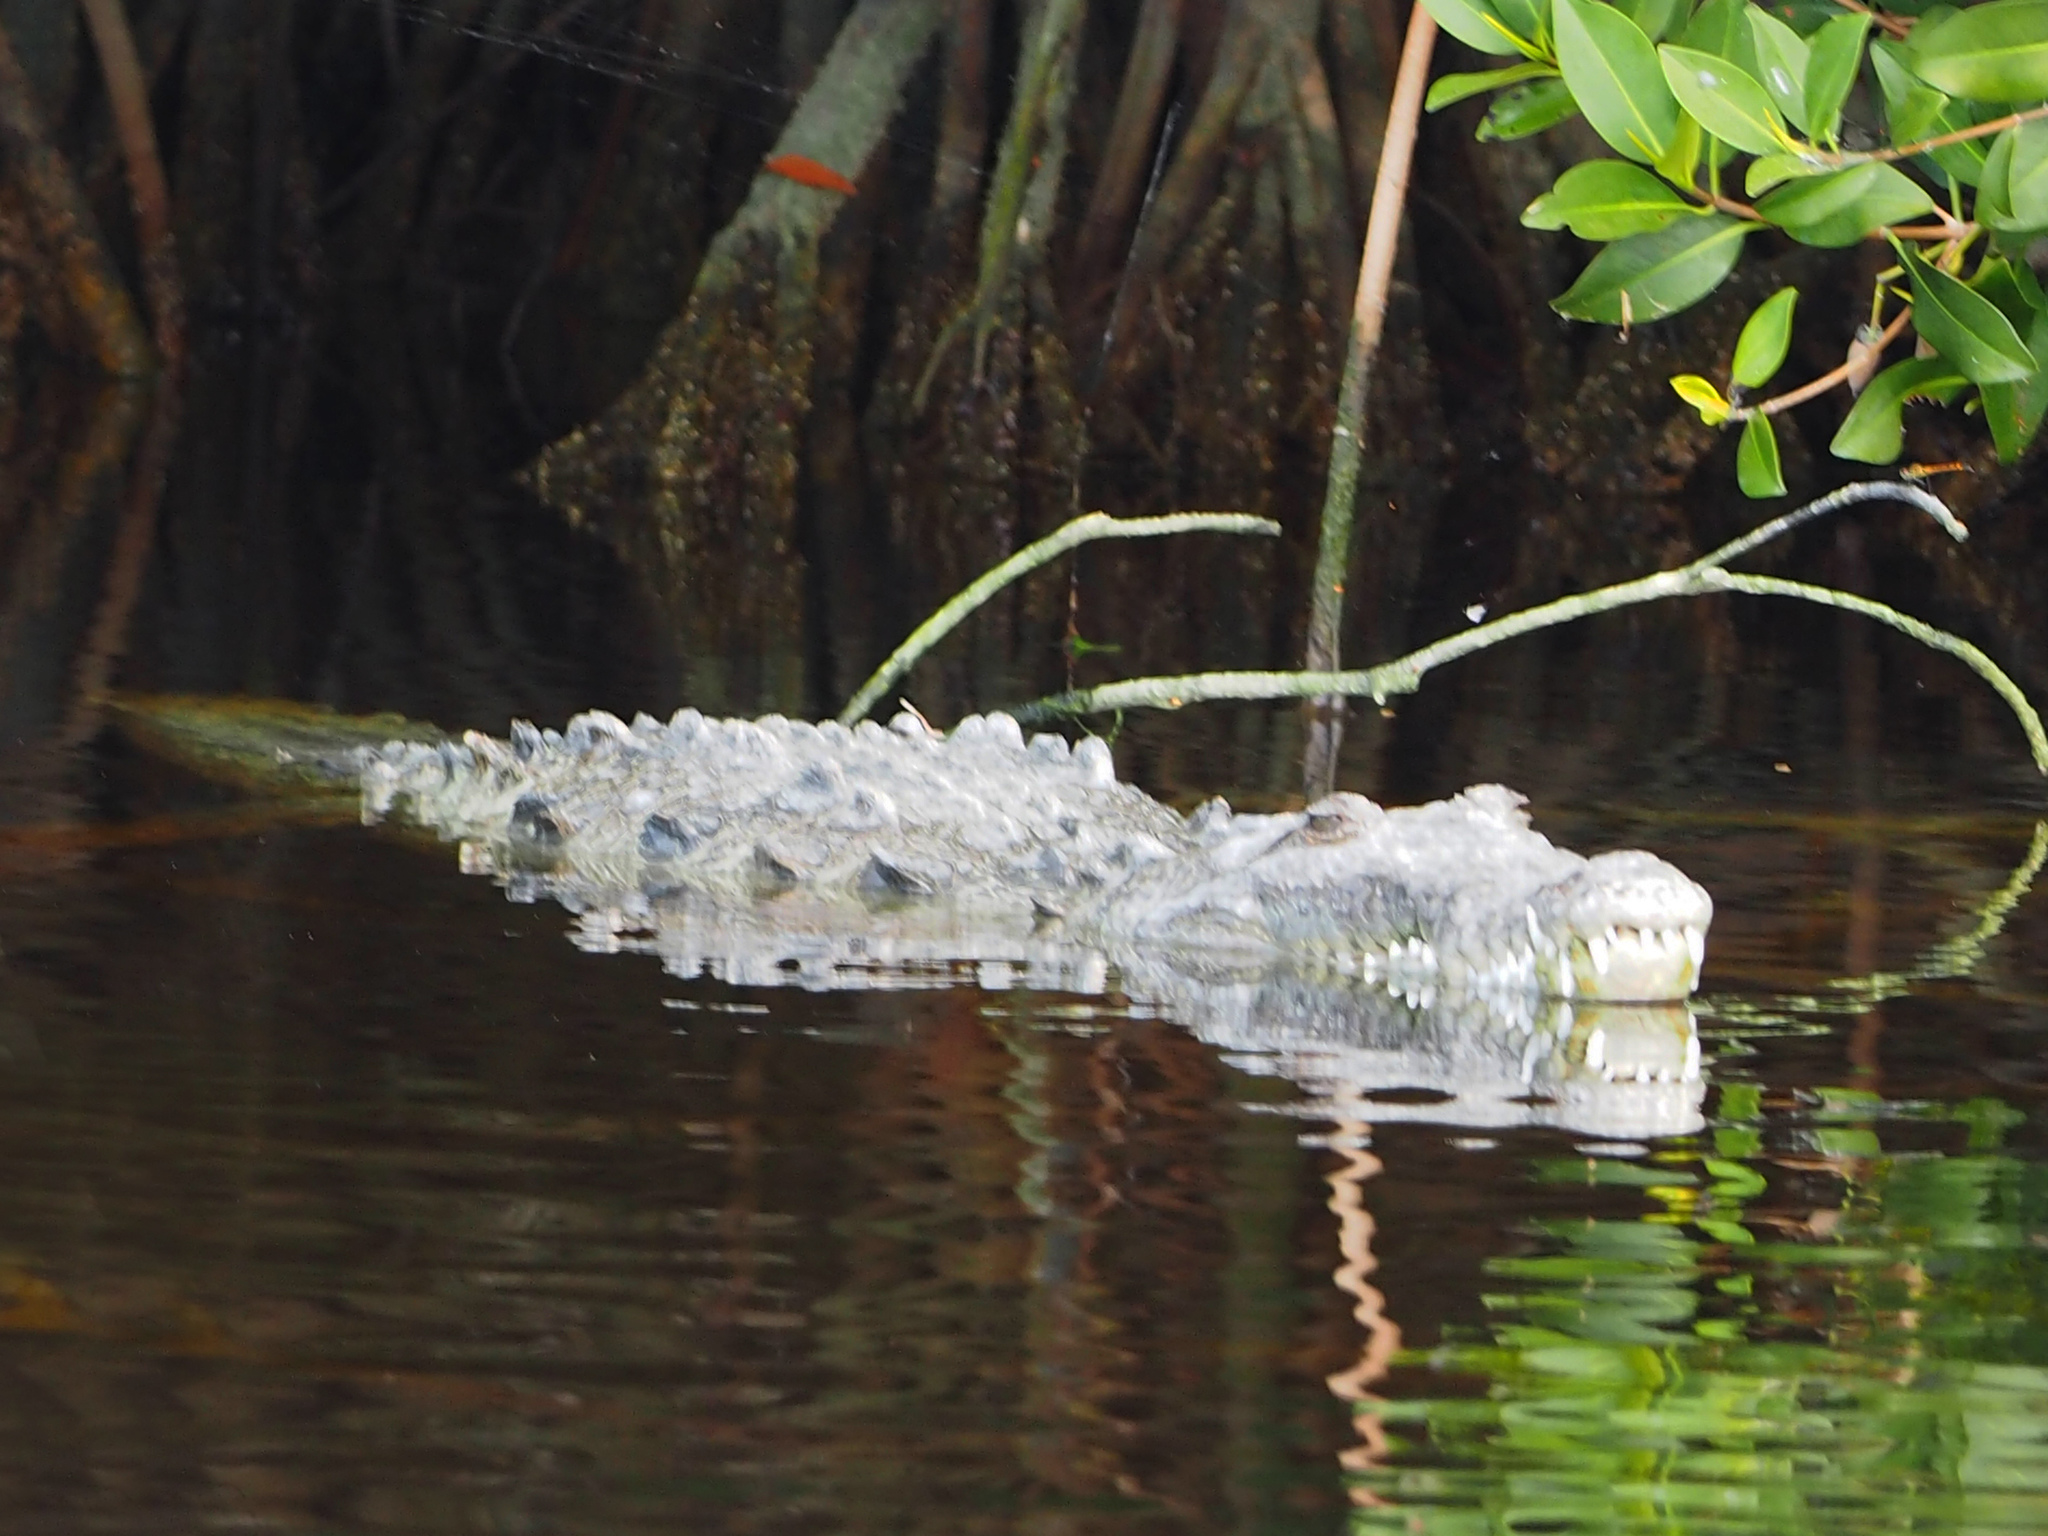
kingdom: Animalia
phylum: Chordata
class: Crocodylia
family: Crocodylidae
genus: Crocodylus
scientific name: Crocodylus acutus
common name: American crocodile
